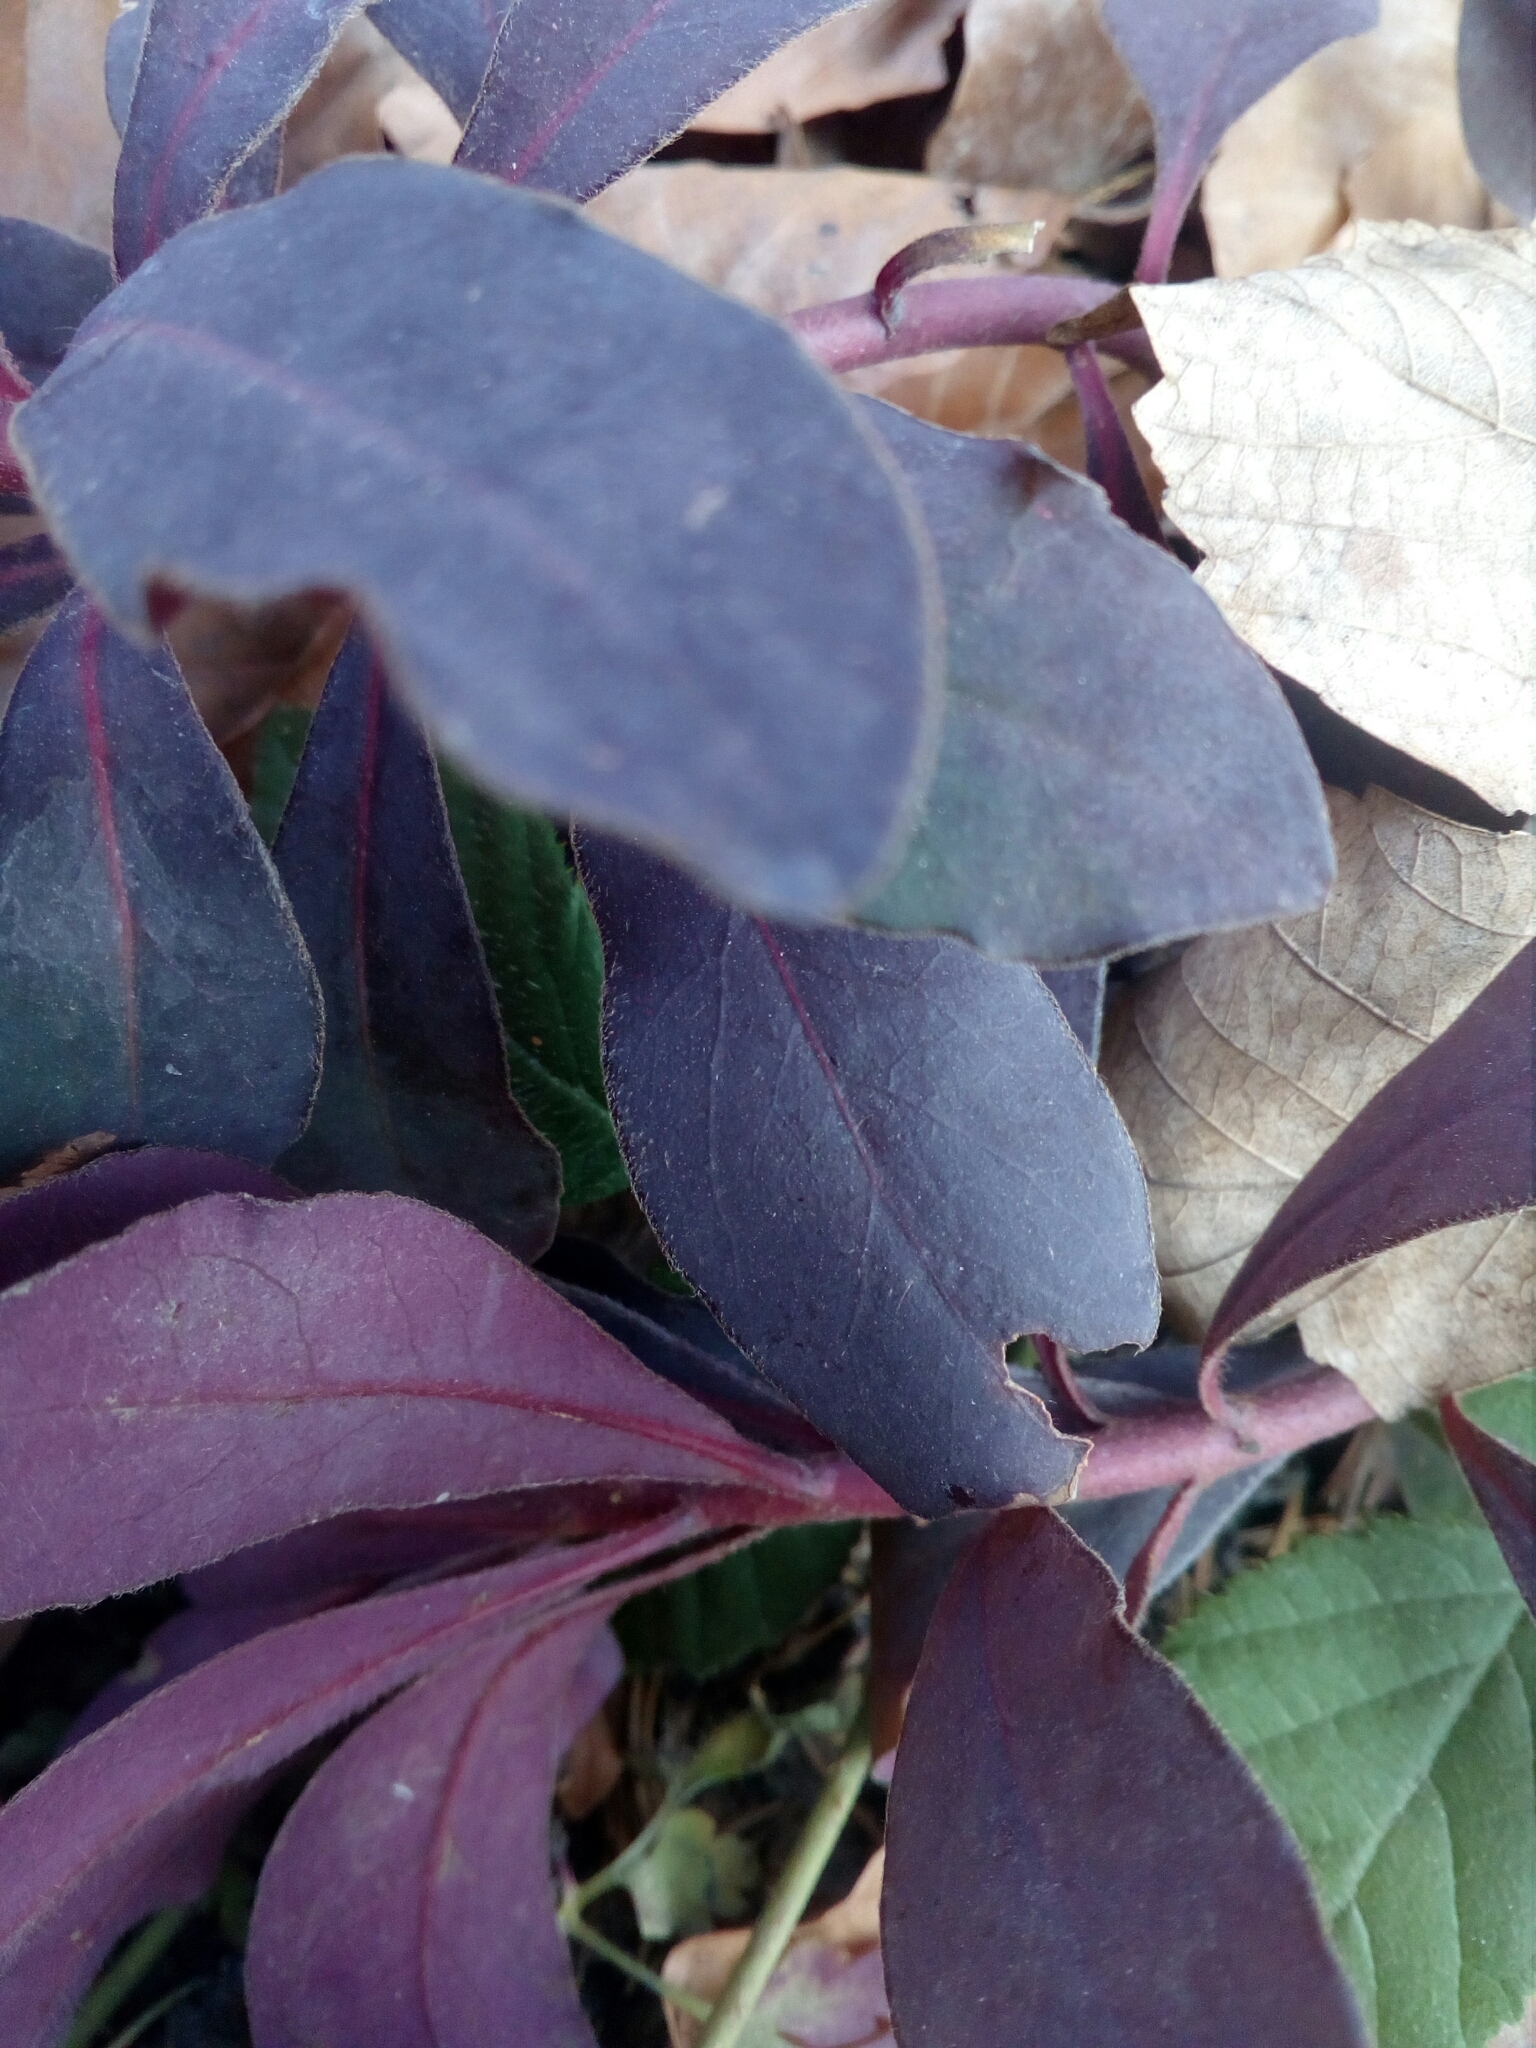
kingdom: Plantae
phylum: Tracheophyta
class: Magnoliopsida
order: Malpighiales
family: Euphorbiaceae
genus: Euphorbia
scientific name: Euphorbia amygdaloides
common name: Wood spurge
